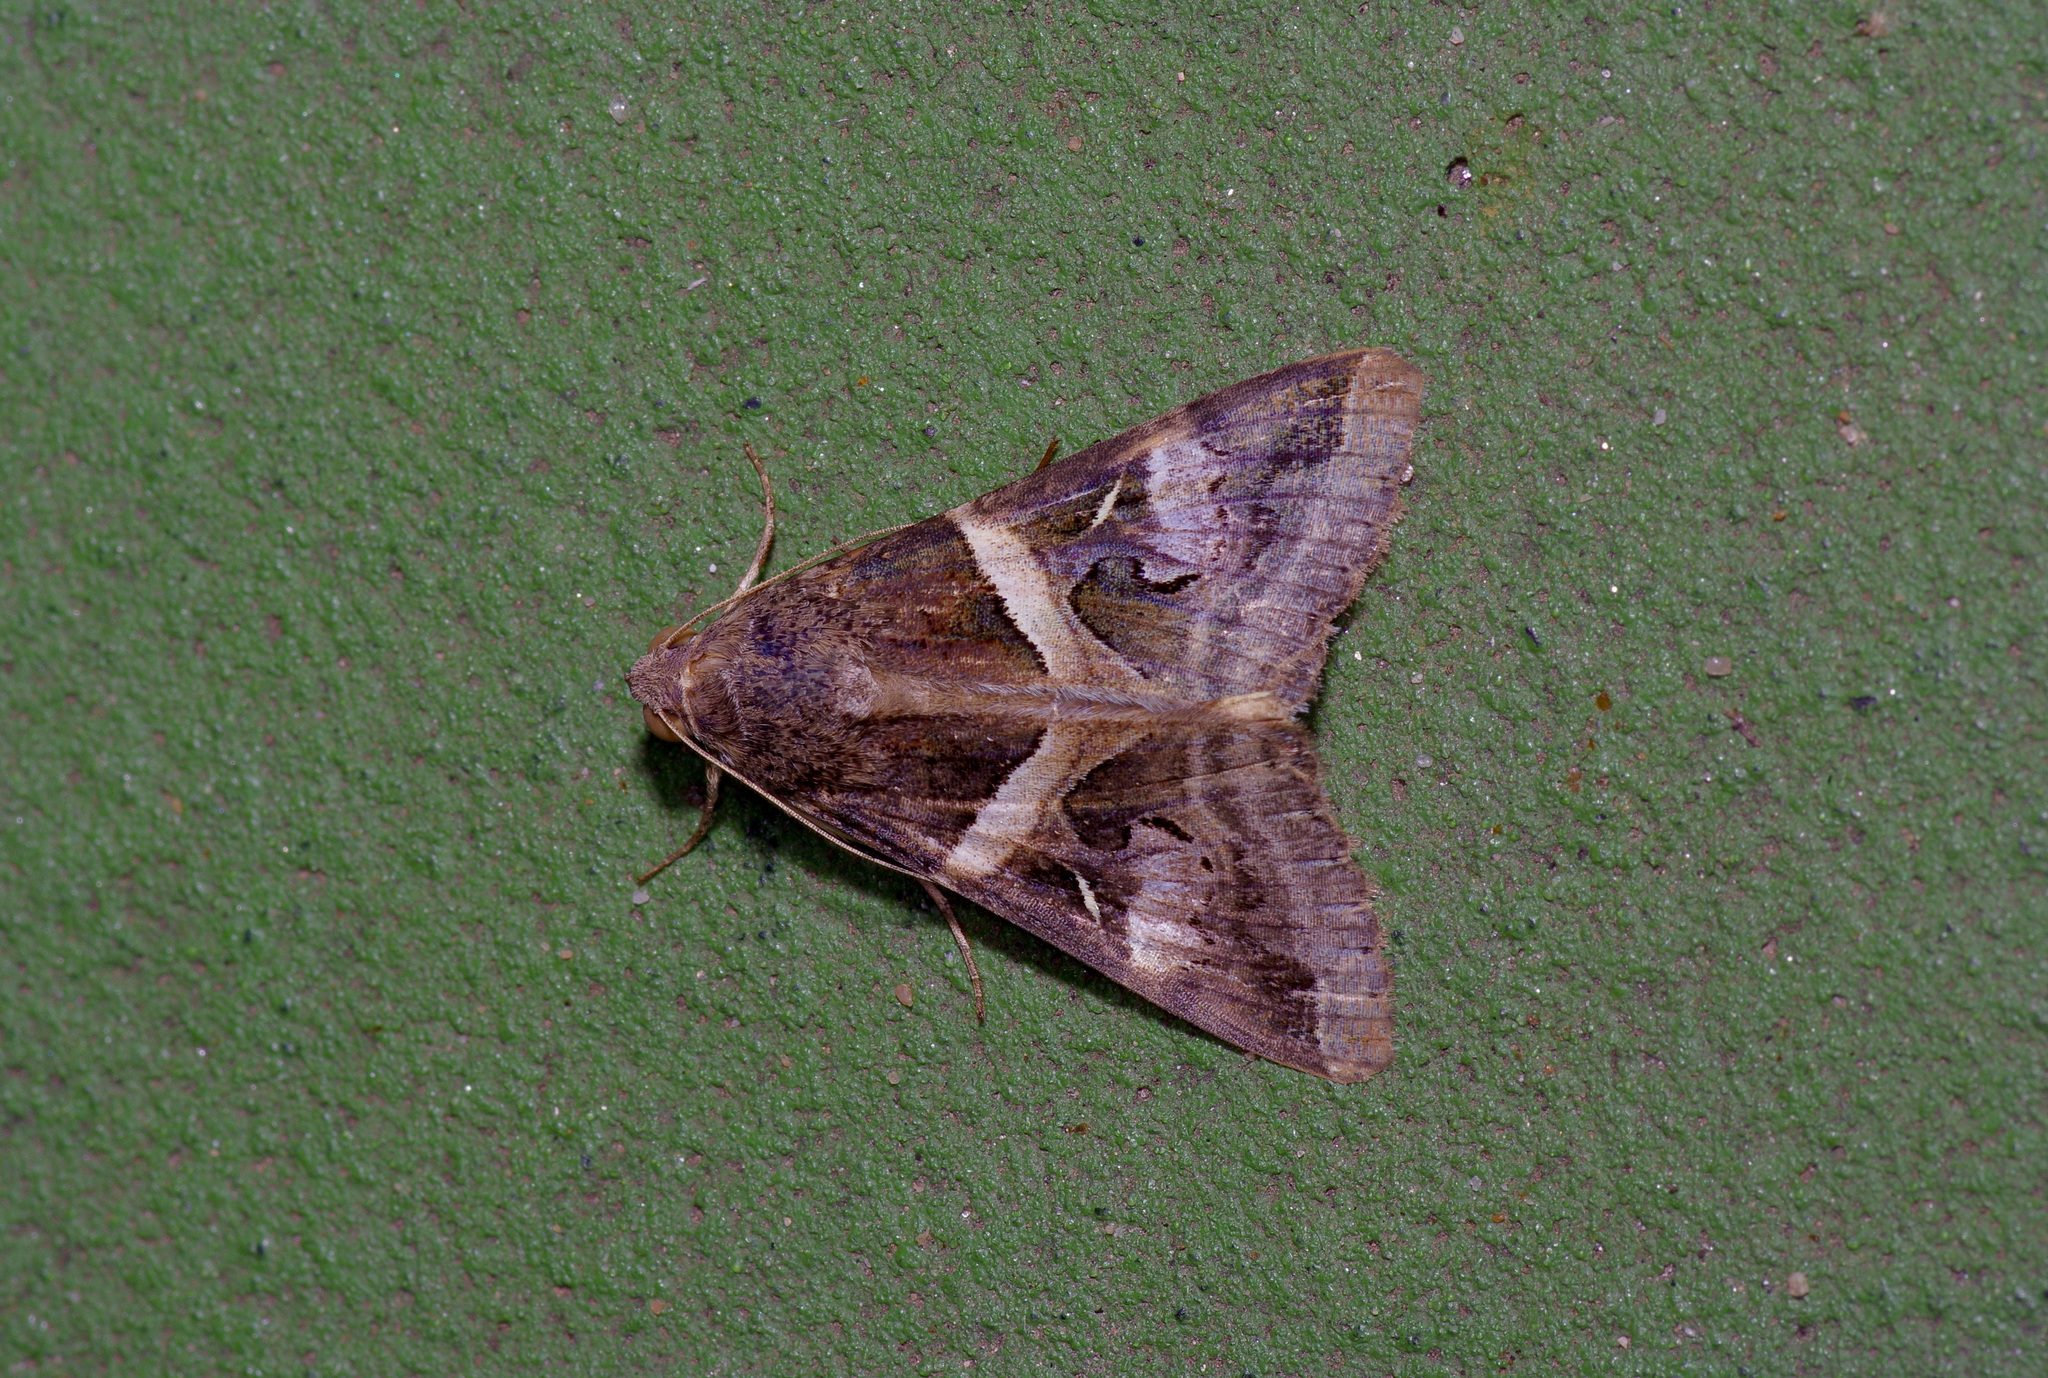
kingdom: Animalia
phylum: Arthropoda
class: Insecta
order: Lepidoptera
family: Erebidae
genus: Melipotis
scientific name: Melipotis indomita
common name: Moth
